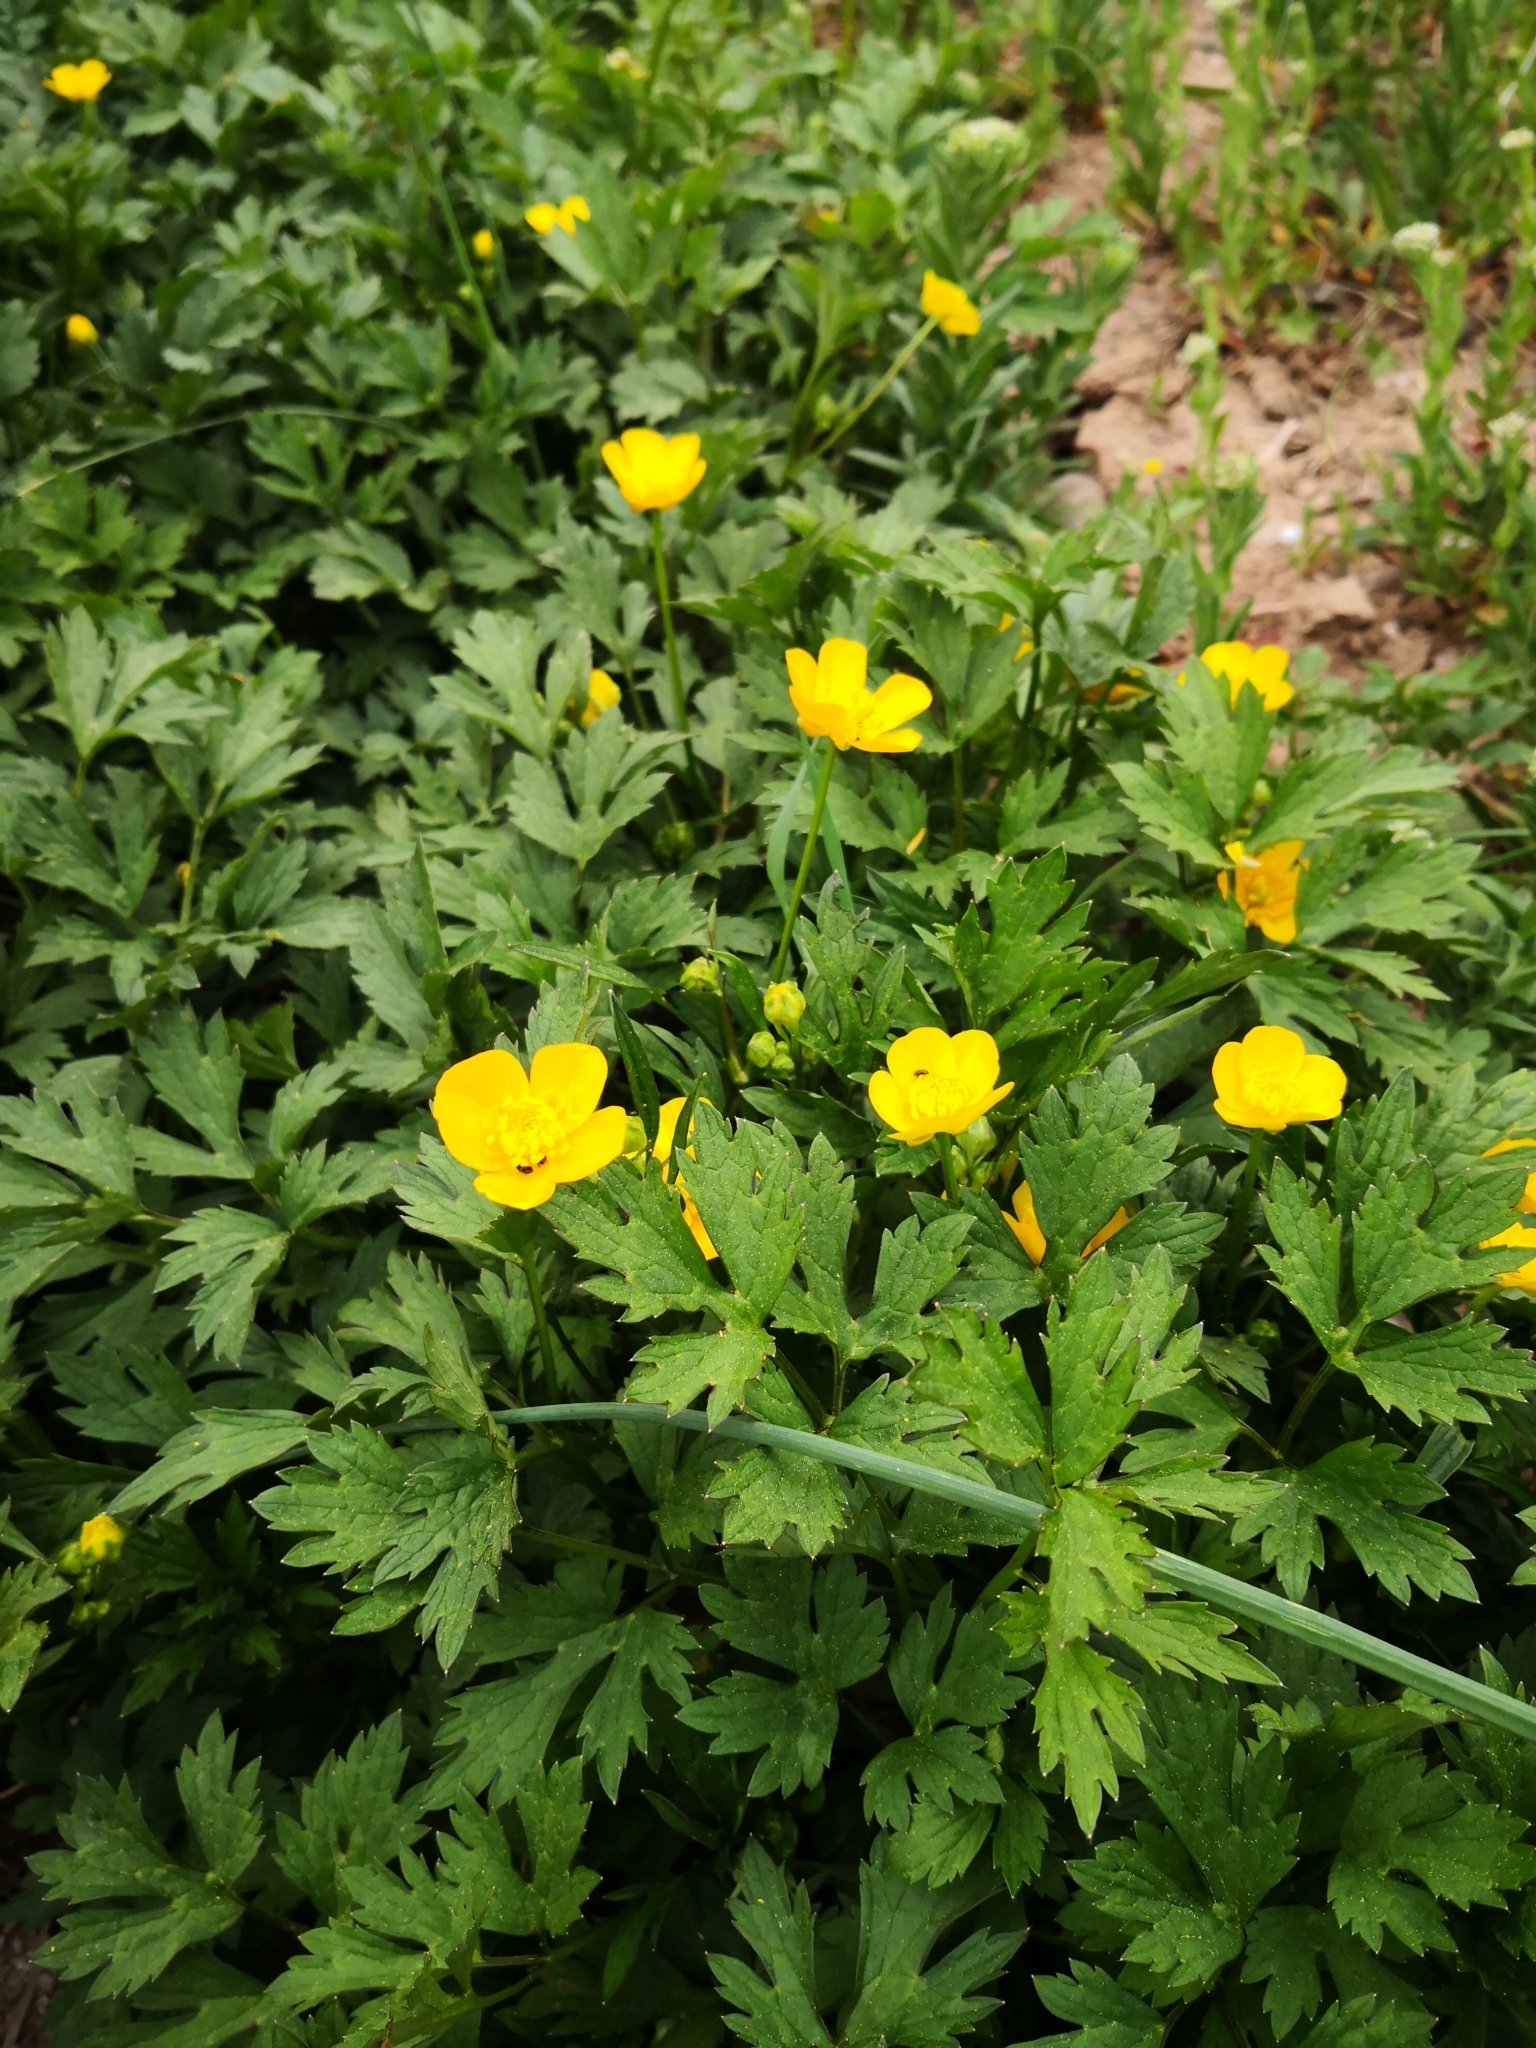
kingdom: Plantae
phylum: Tracheophyta
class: Magnoliopsida
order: Ranunculales
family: Ranunculaceae
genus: Ranunculus
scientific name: Ranunculus repens
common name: Creeping buttercup
